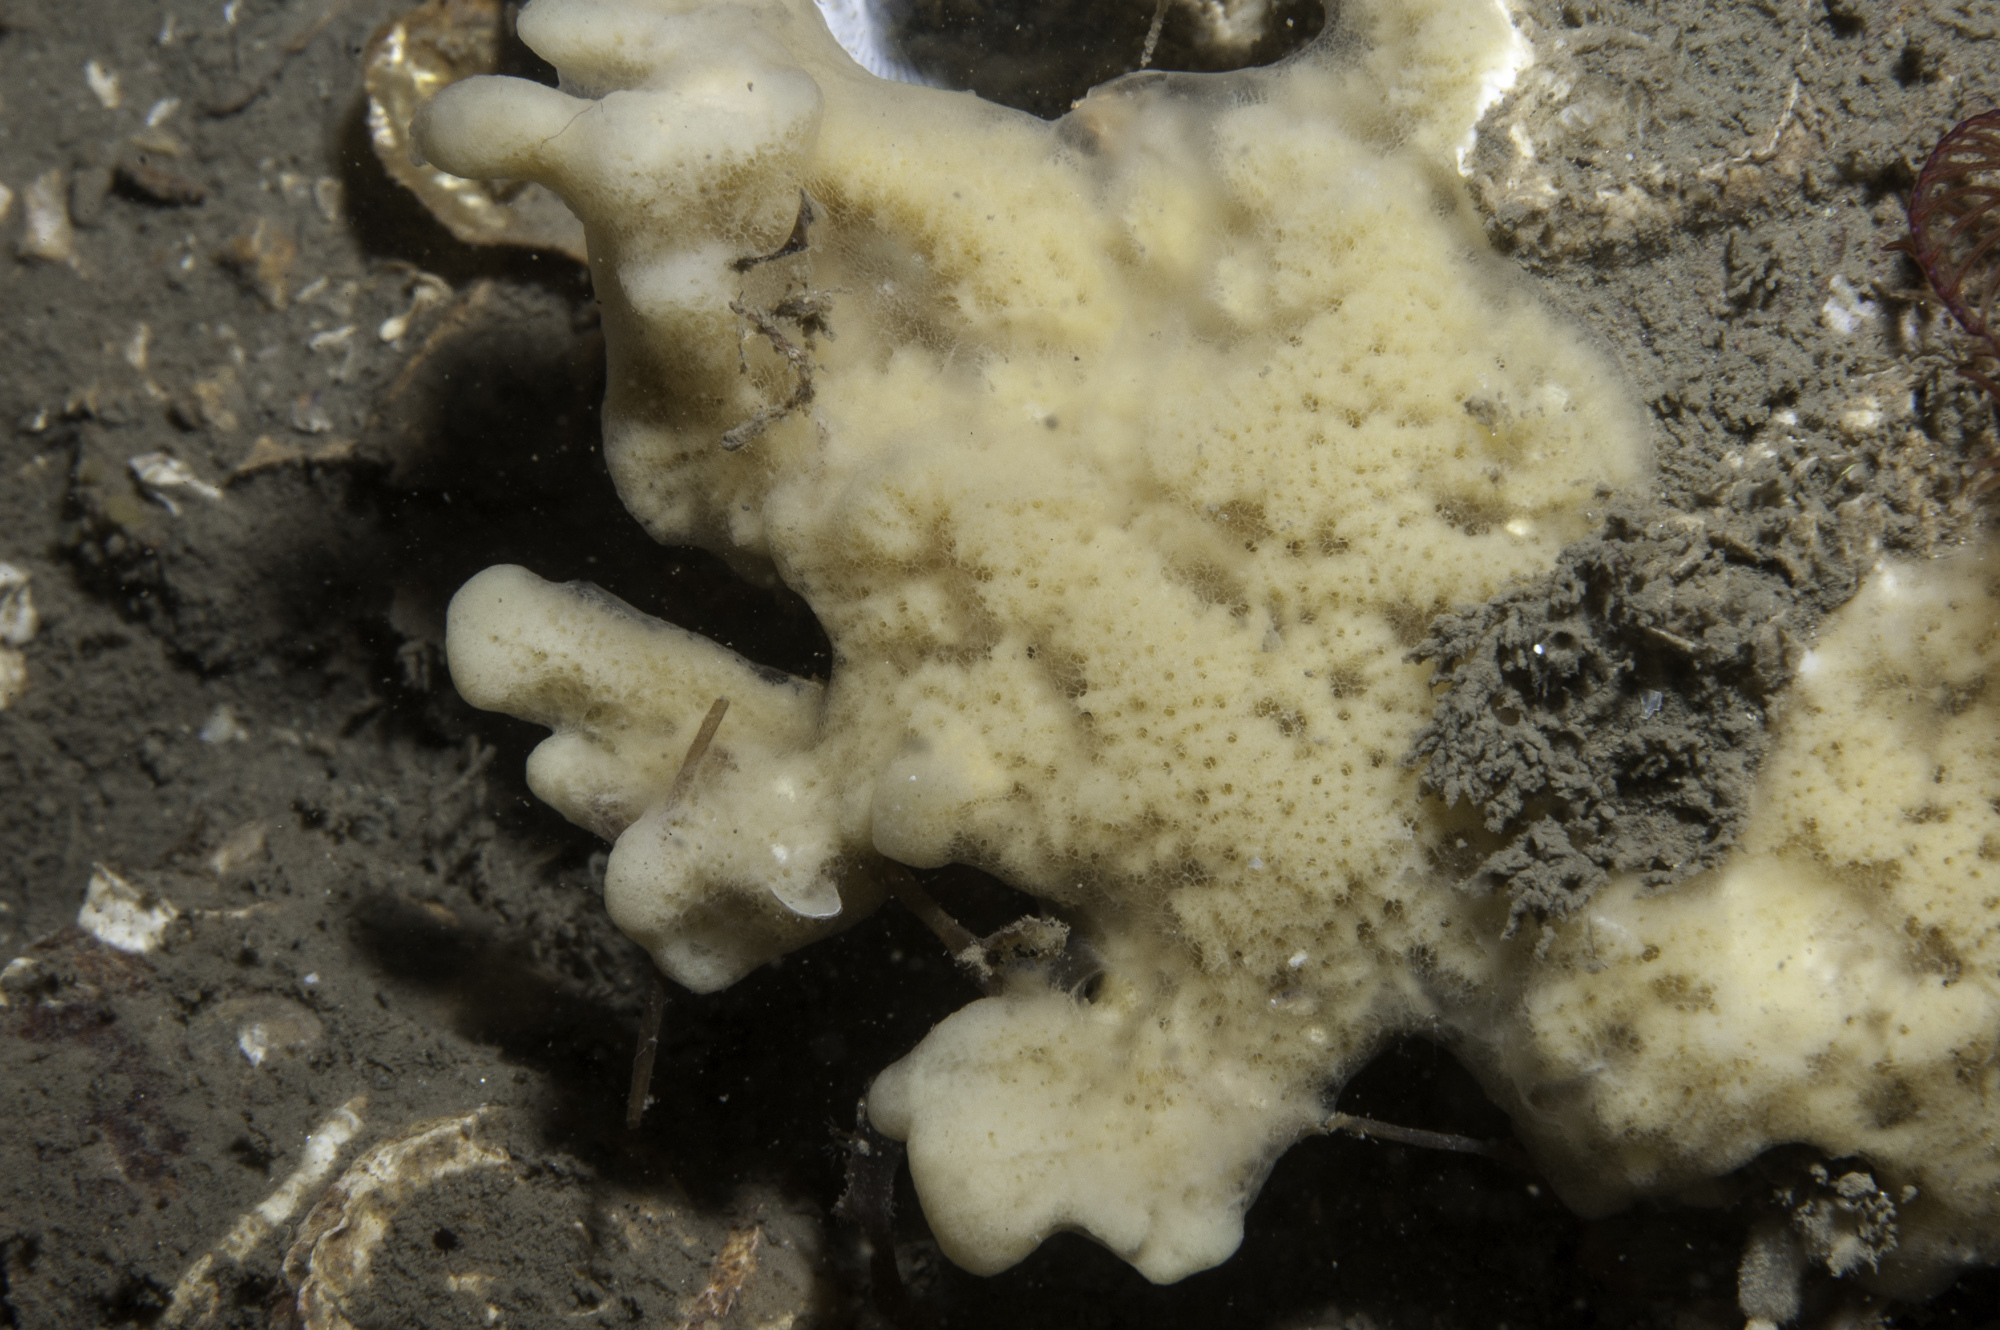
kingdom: Animalia
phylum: Porifera
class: Demospongiae
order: Haplosclerida
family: Chalinidae
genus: Haliclona
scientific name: Haliclona fistulosa
